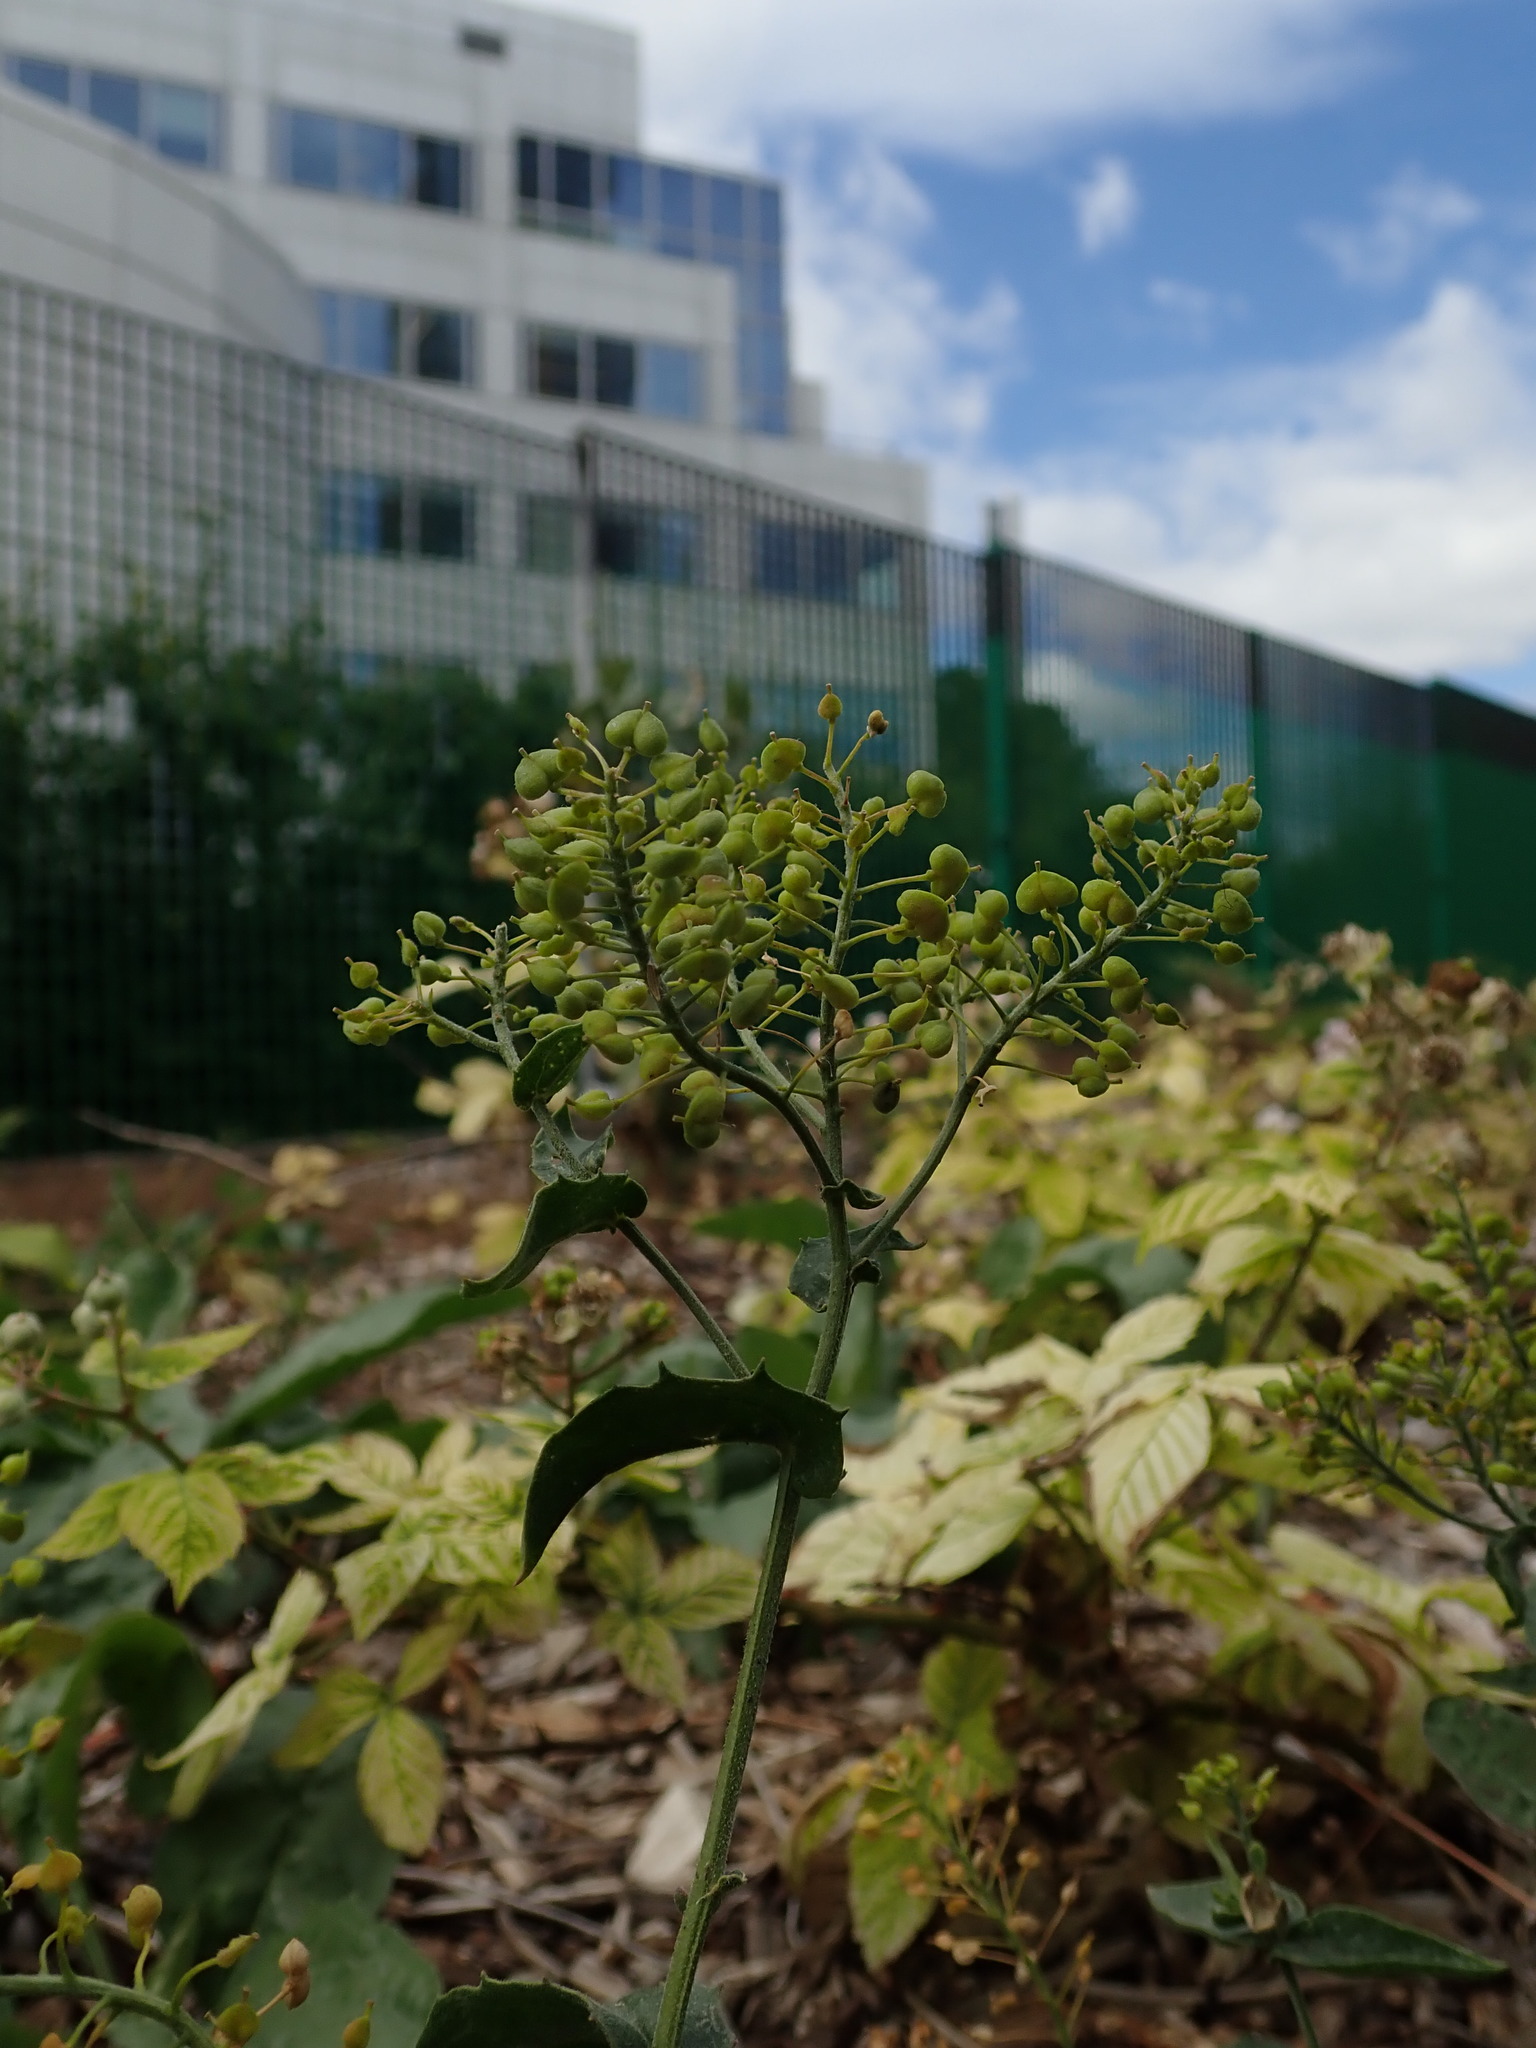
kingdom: Plantae
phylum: Tracheophyta
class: Magnoliopsida
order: Brassicales
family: Brassicaceae
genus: Lepidium
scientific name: Lepidium draba
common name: Hoary cress
